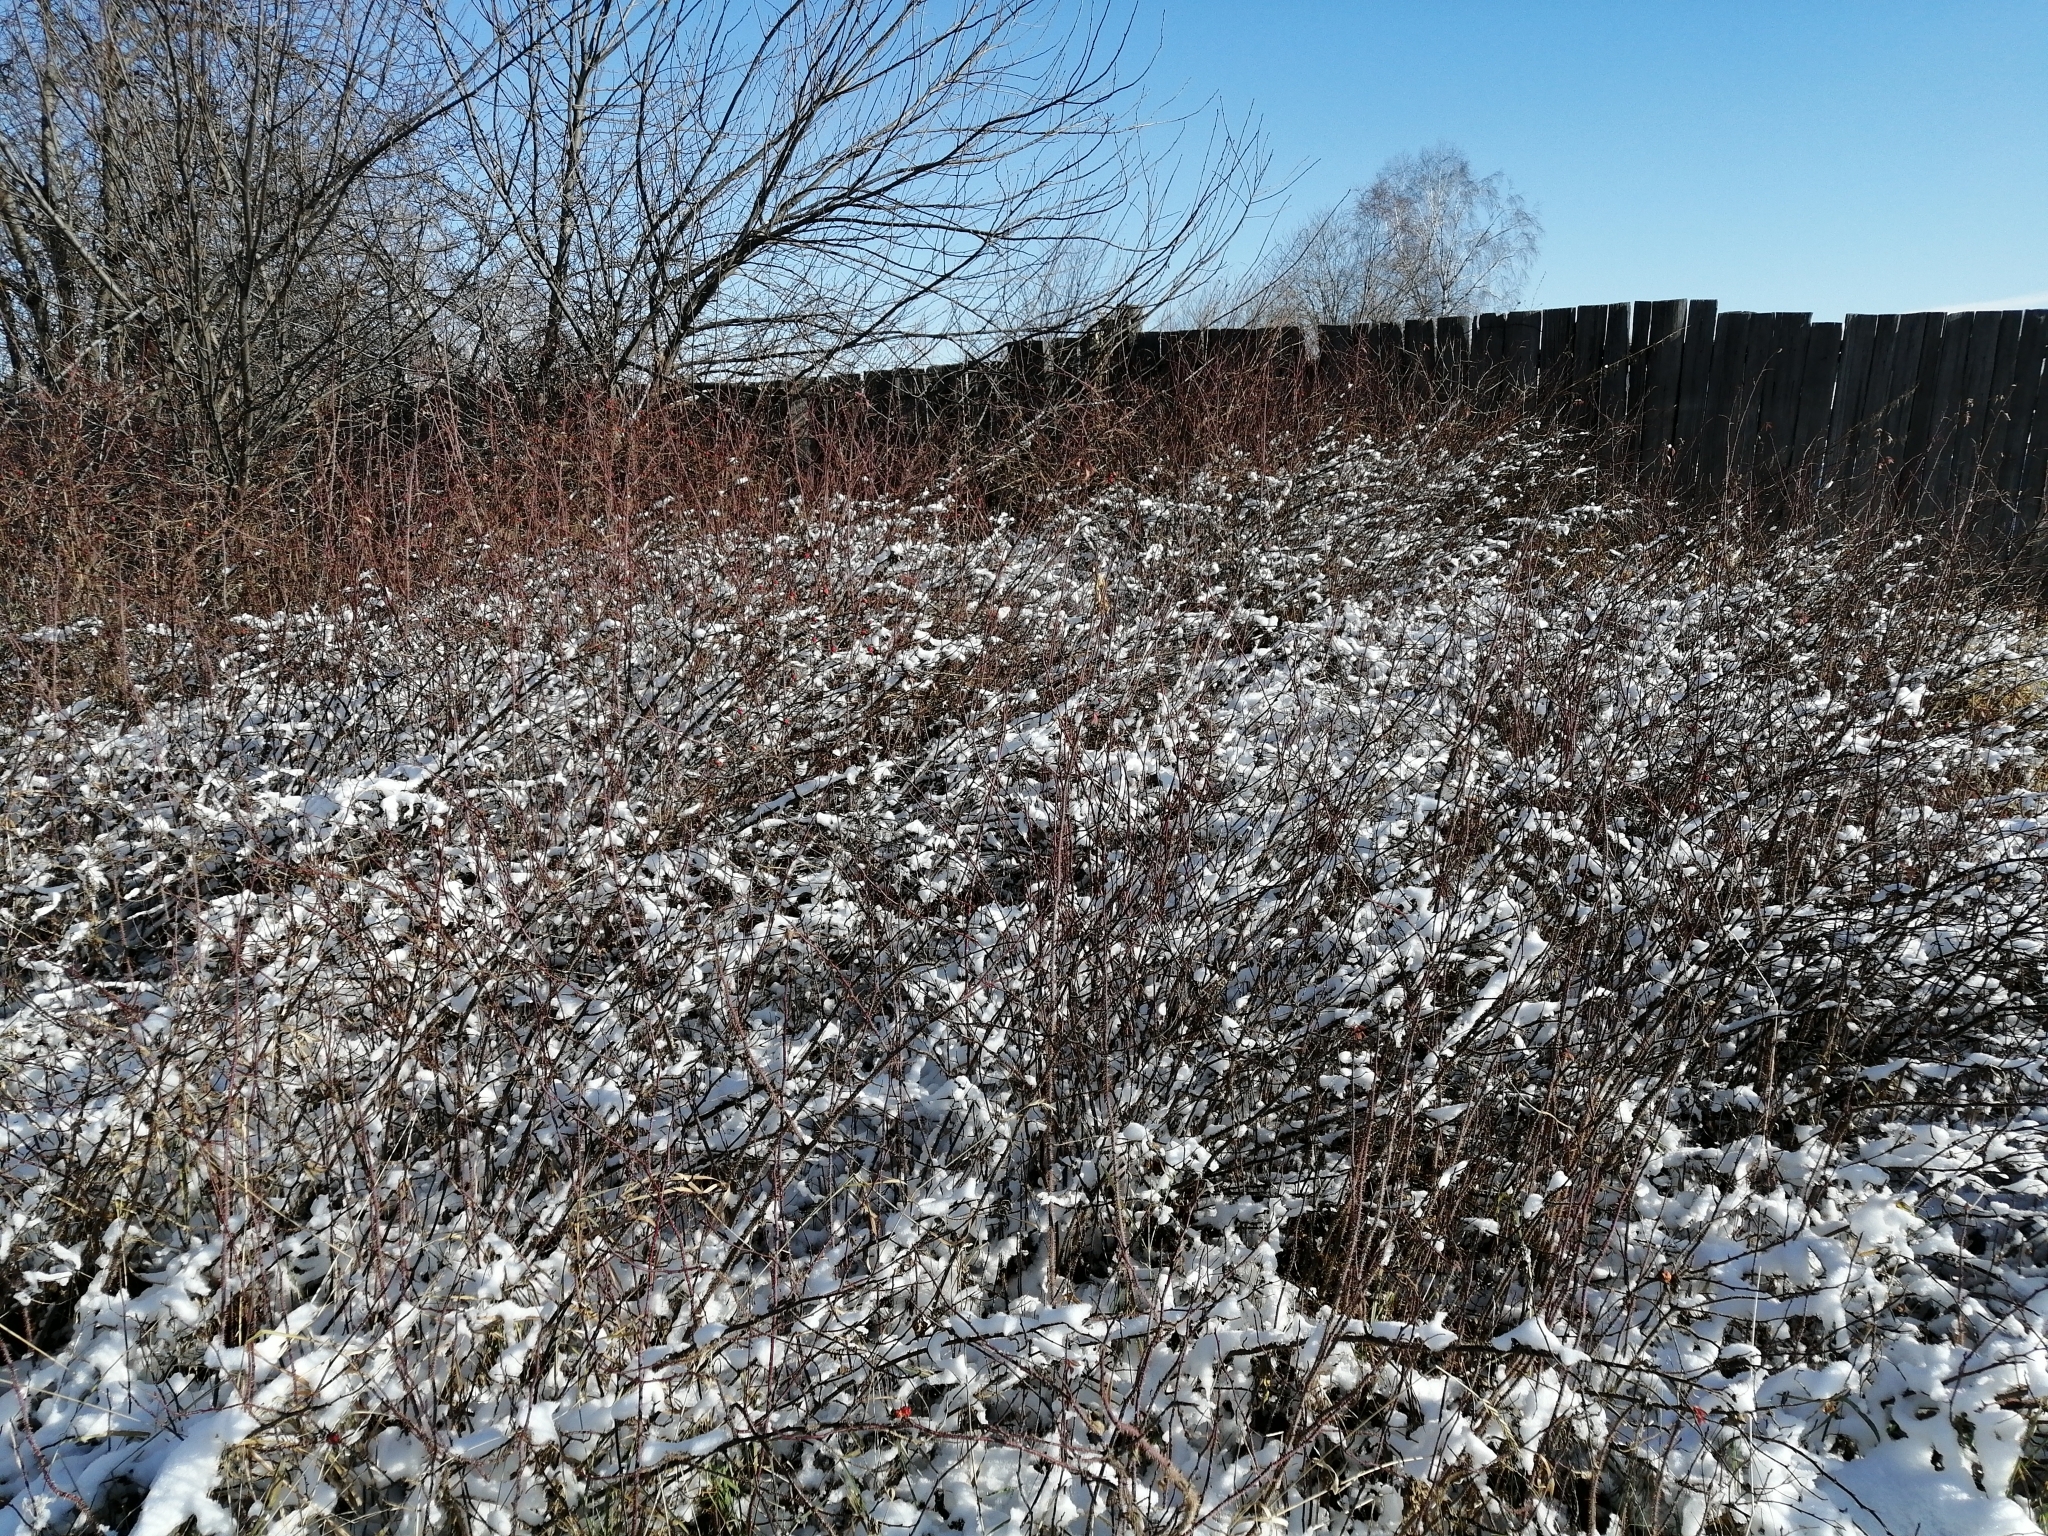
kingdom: Plantae
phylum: Tracheophyta
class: Magnoliopsida
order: Rosales
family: Rosaceae
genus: Rosa
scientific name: Rosa acicularis
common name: Prickly rose
